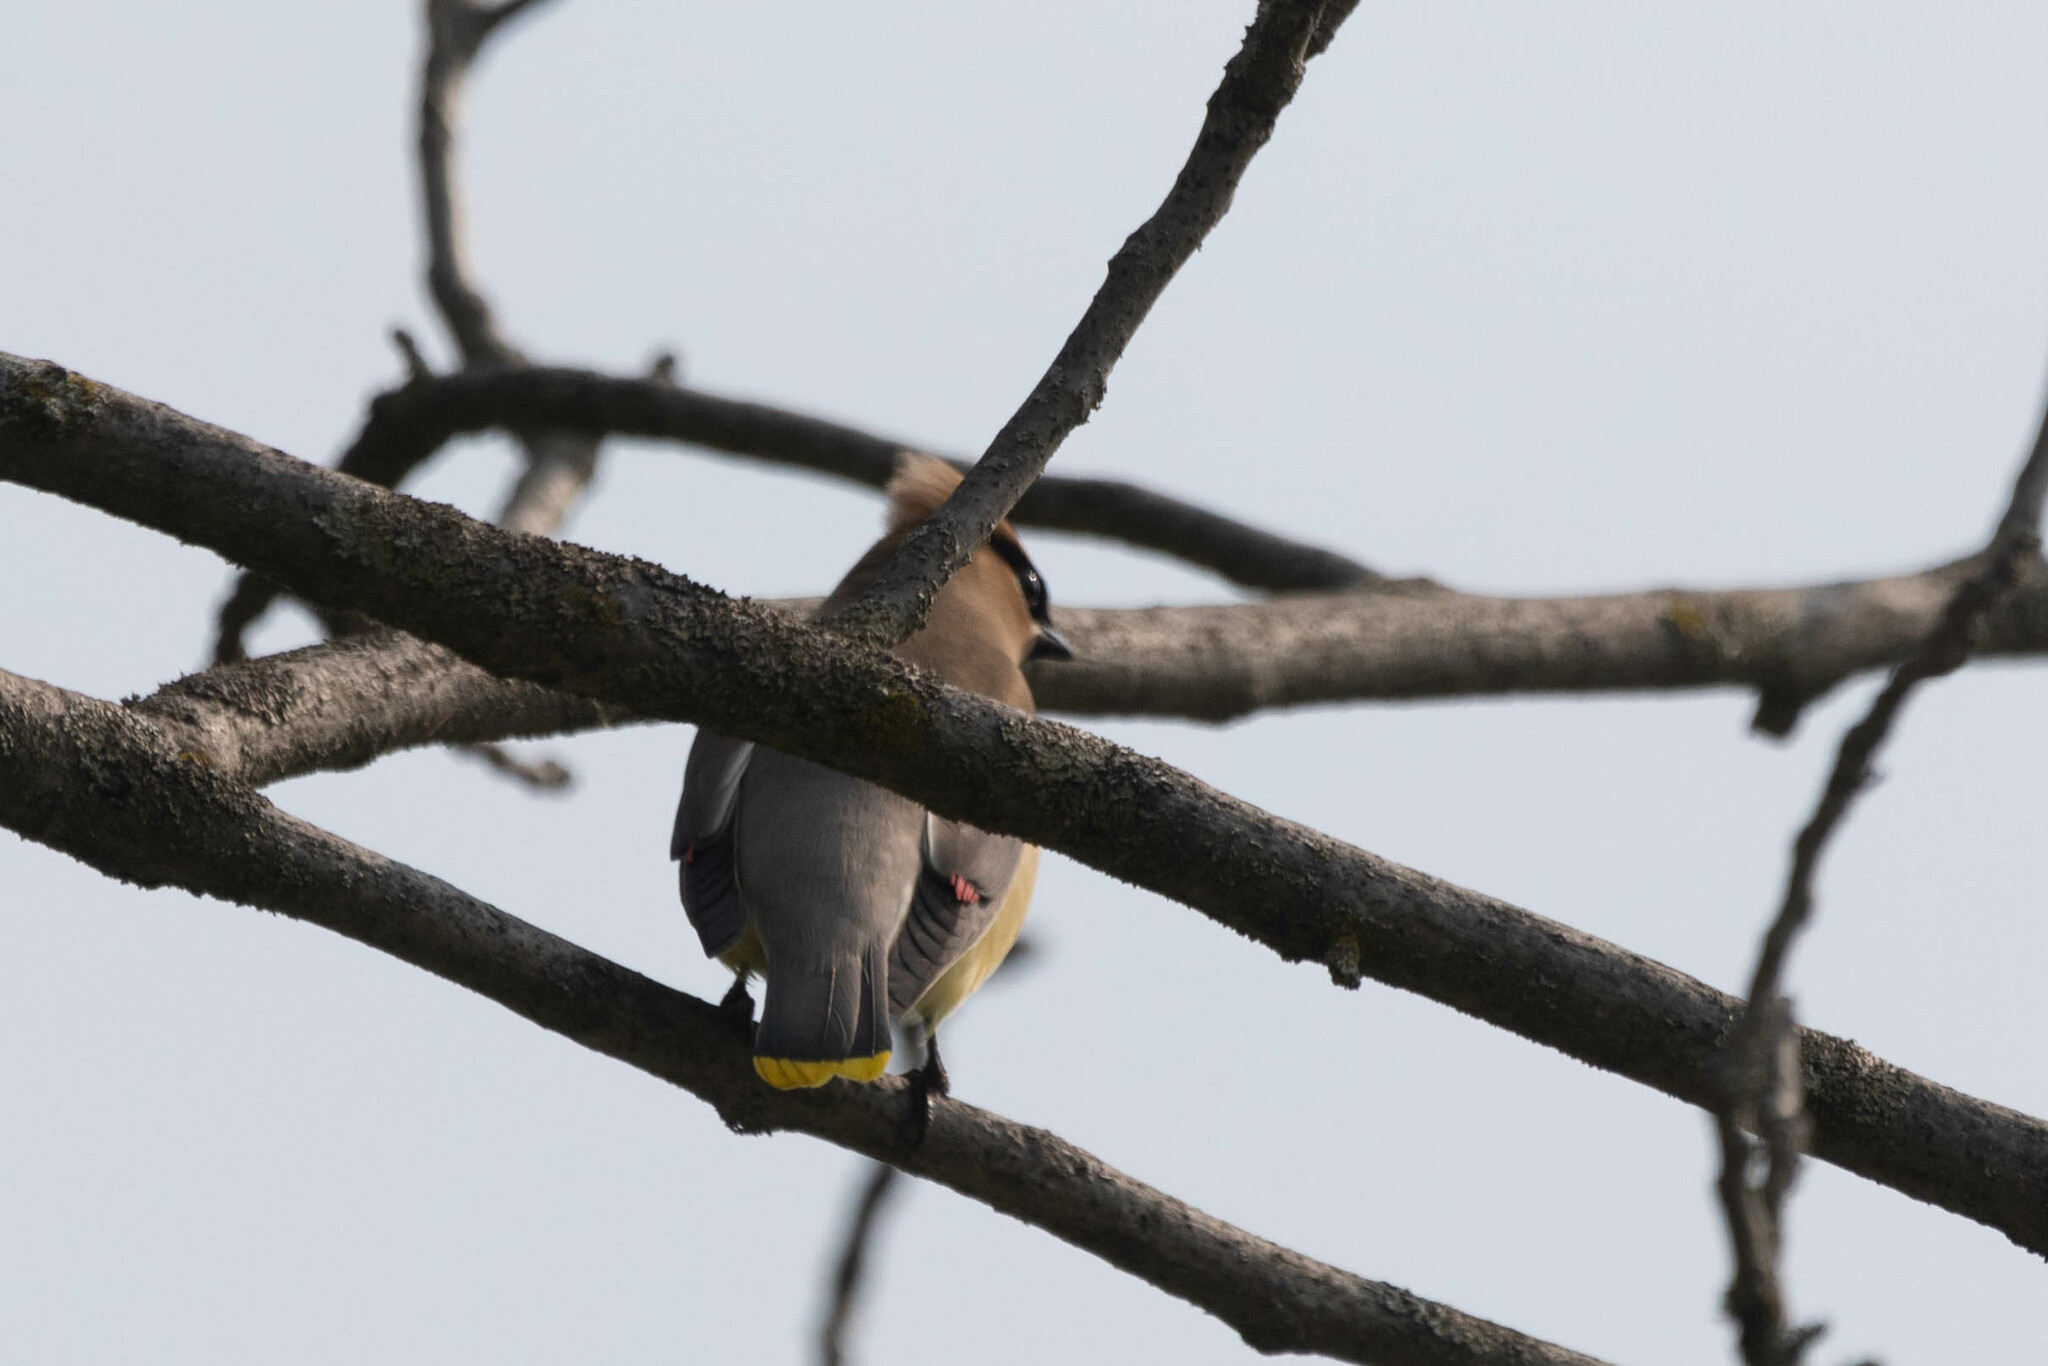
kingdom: Animalia
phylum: Chordata
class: Aves
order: Passeriformes
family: Bombycillidae
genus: Bombycilla
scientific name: Bombycilla cedrorum
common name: Cedar waxwing
